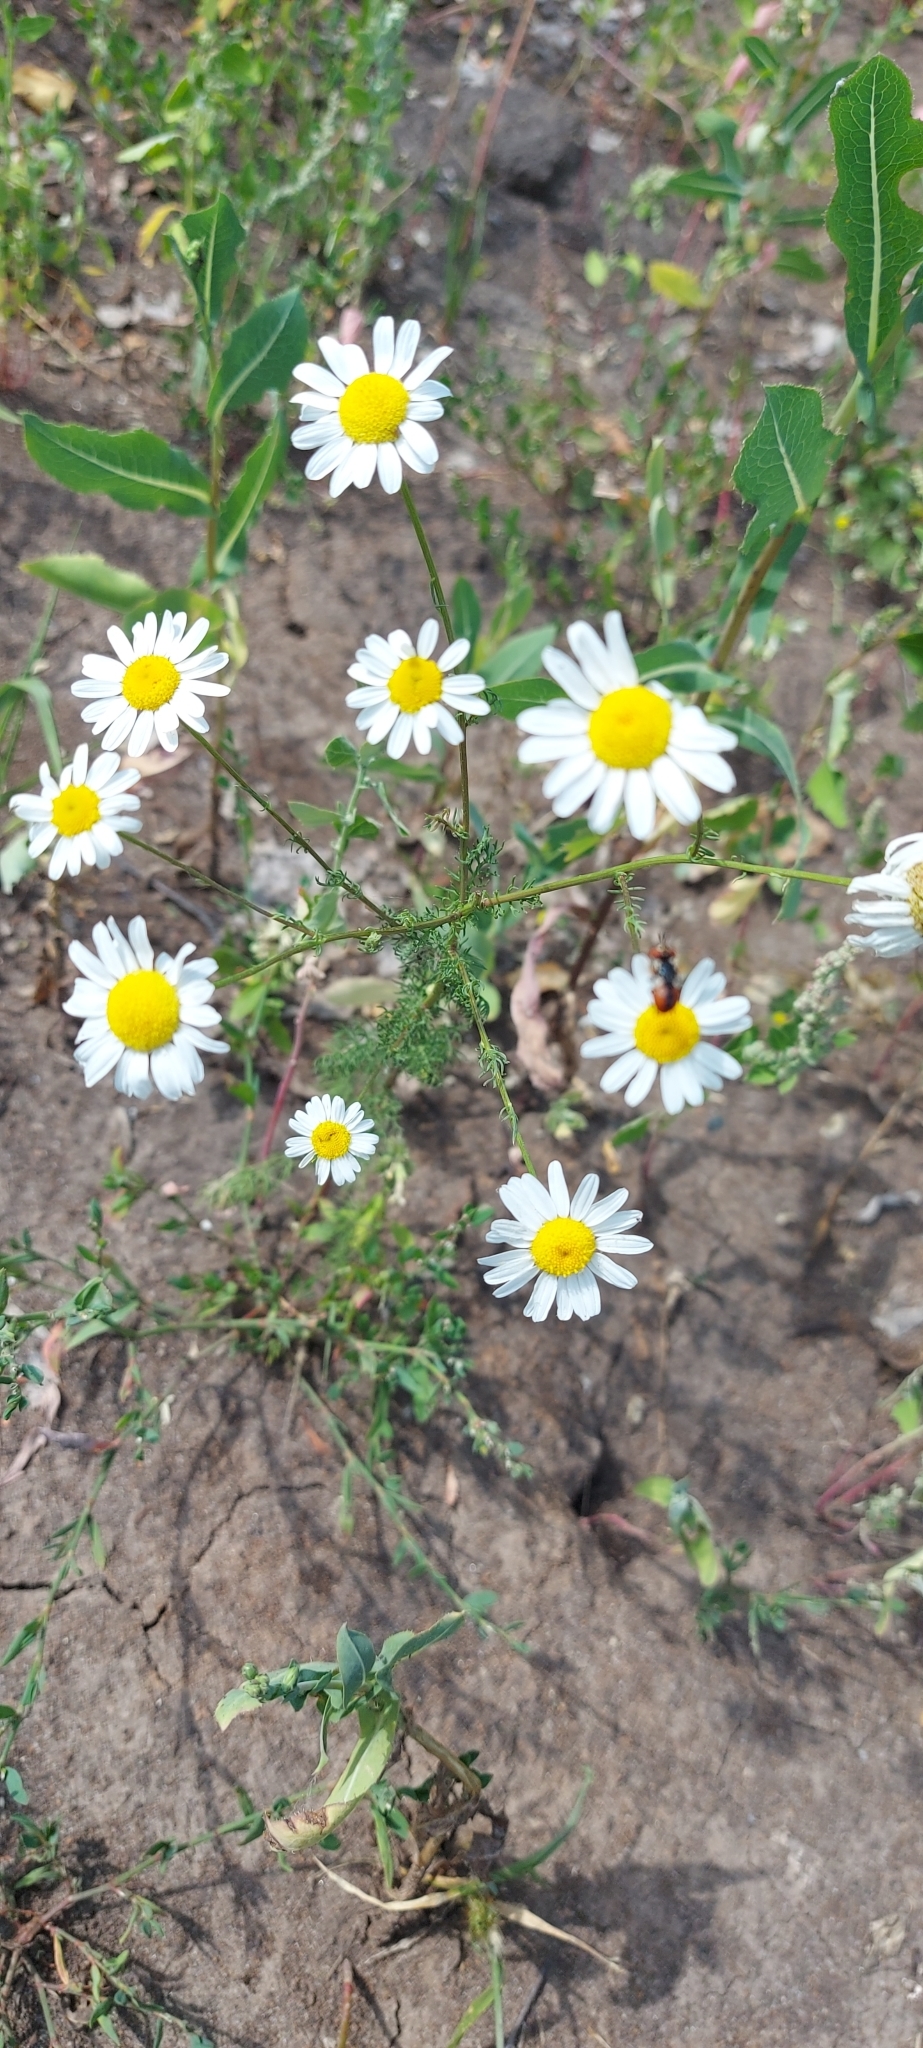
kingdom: Plantae
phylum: Tracheophyta
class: Magnoliopsida
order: Asterales
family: Asteraceae
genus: Tripleurospermum
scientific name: Tripleurospermum inodorum
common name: Scentless mayweed
